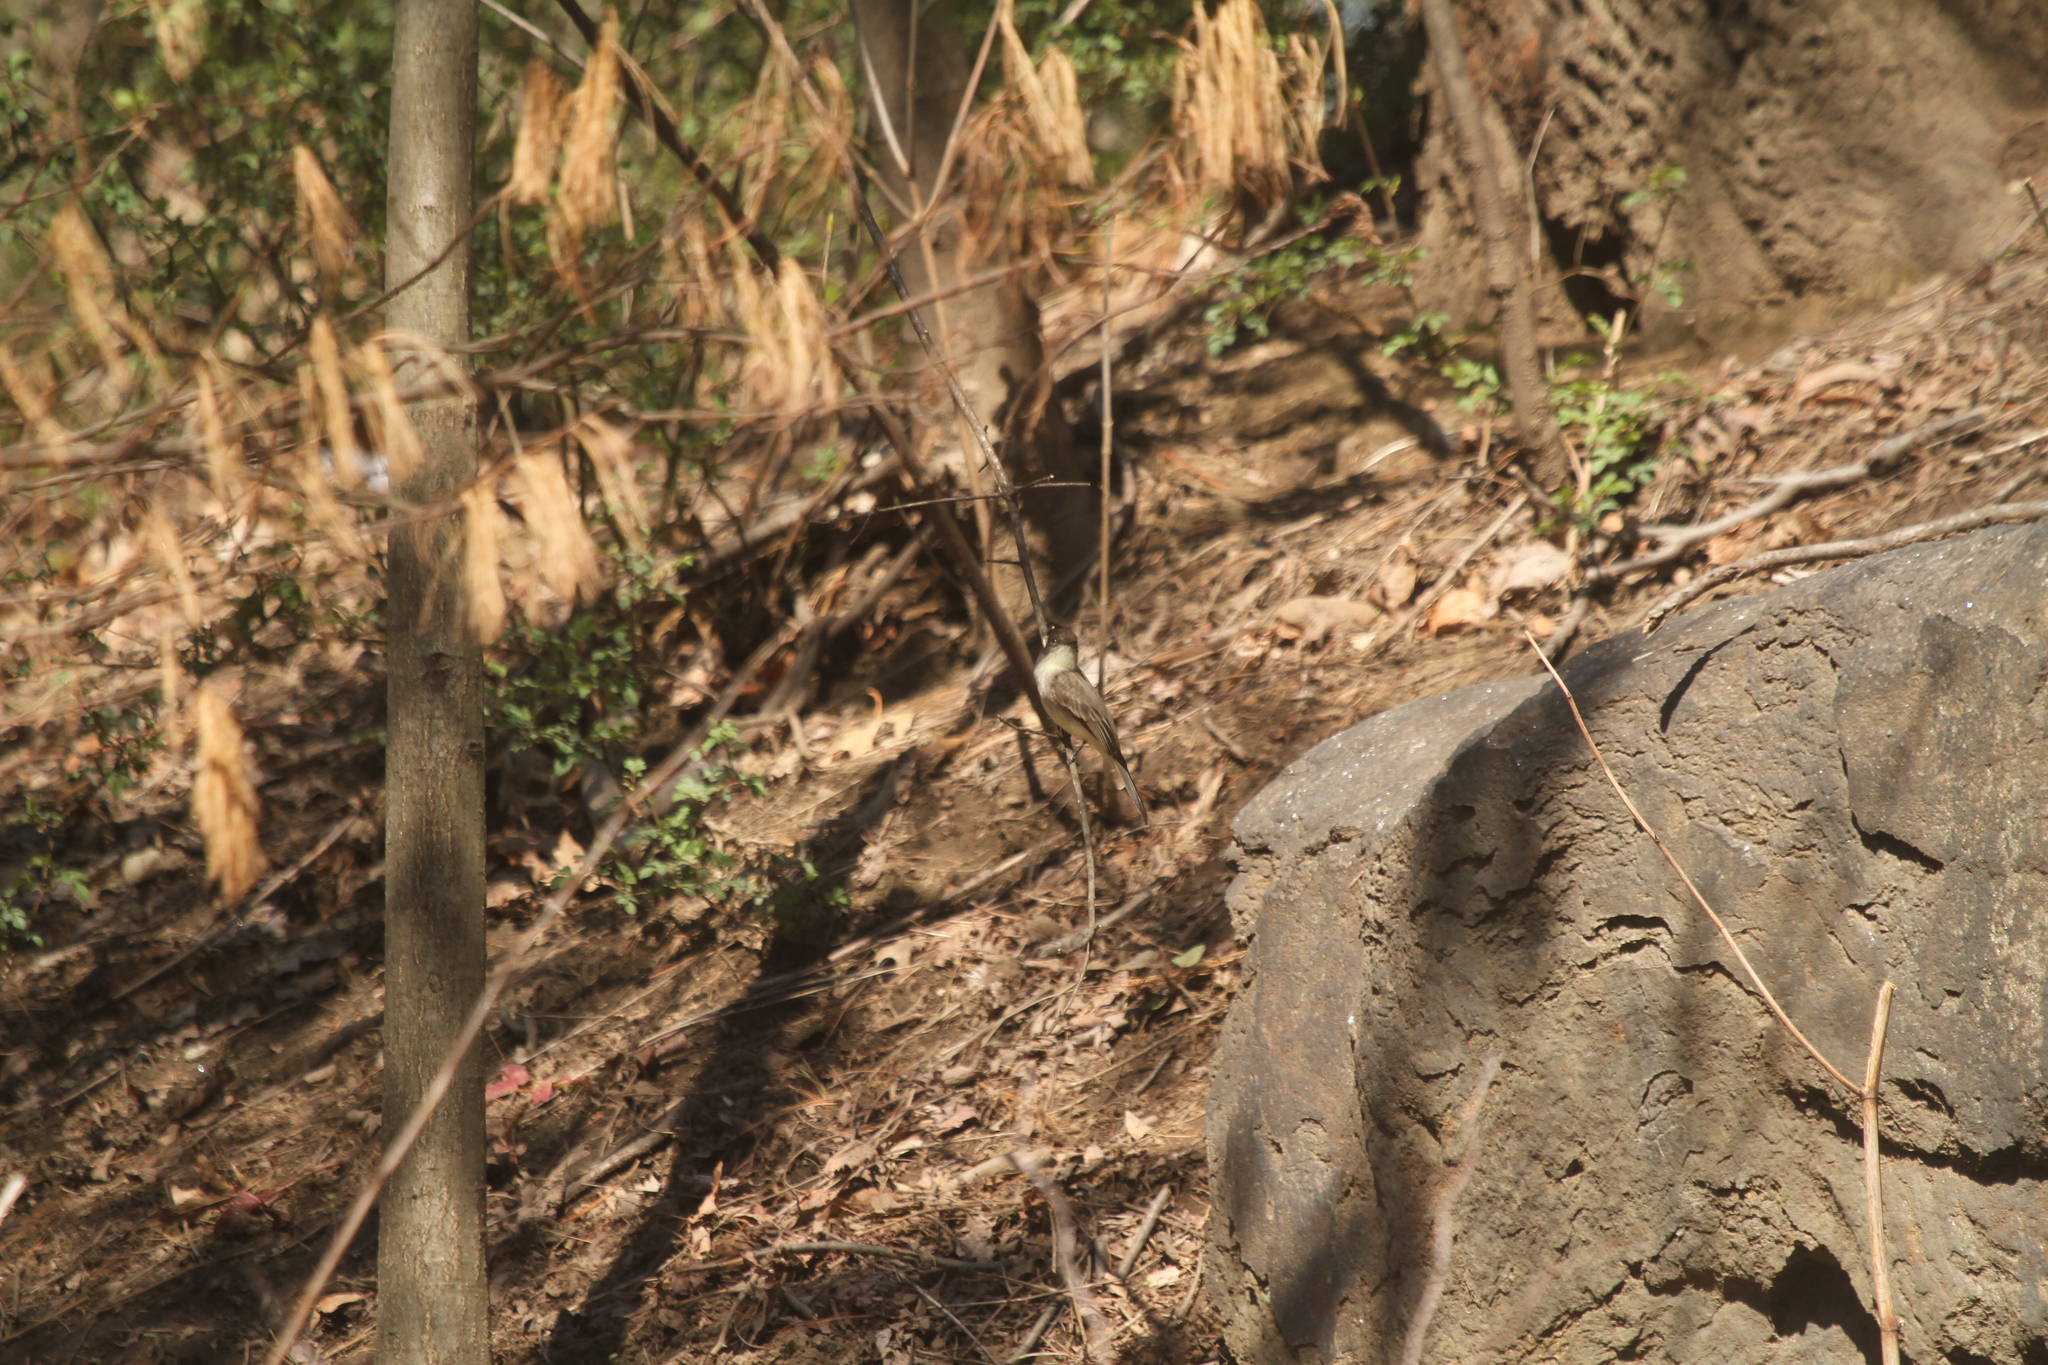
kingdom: Animalia
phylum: Chordata
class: Aves
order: Passeriformes
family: Tyrannidae
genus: Sayornis
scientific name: Sayornis phoebe
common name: Eastern phoebe
